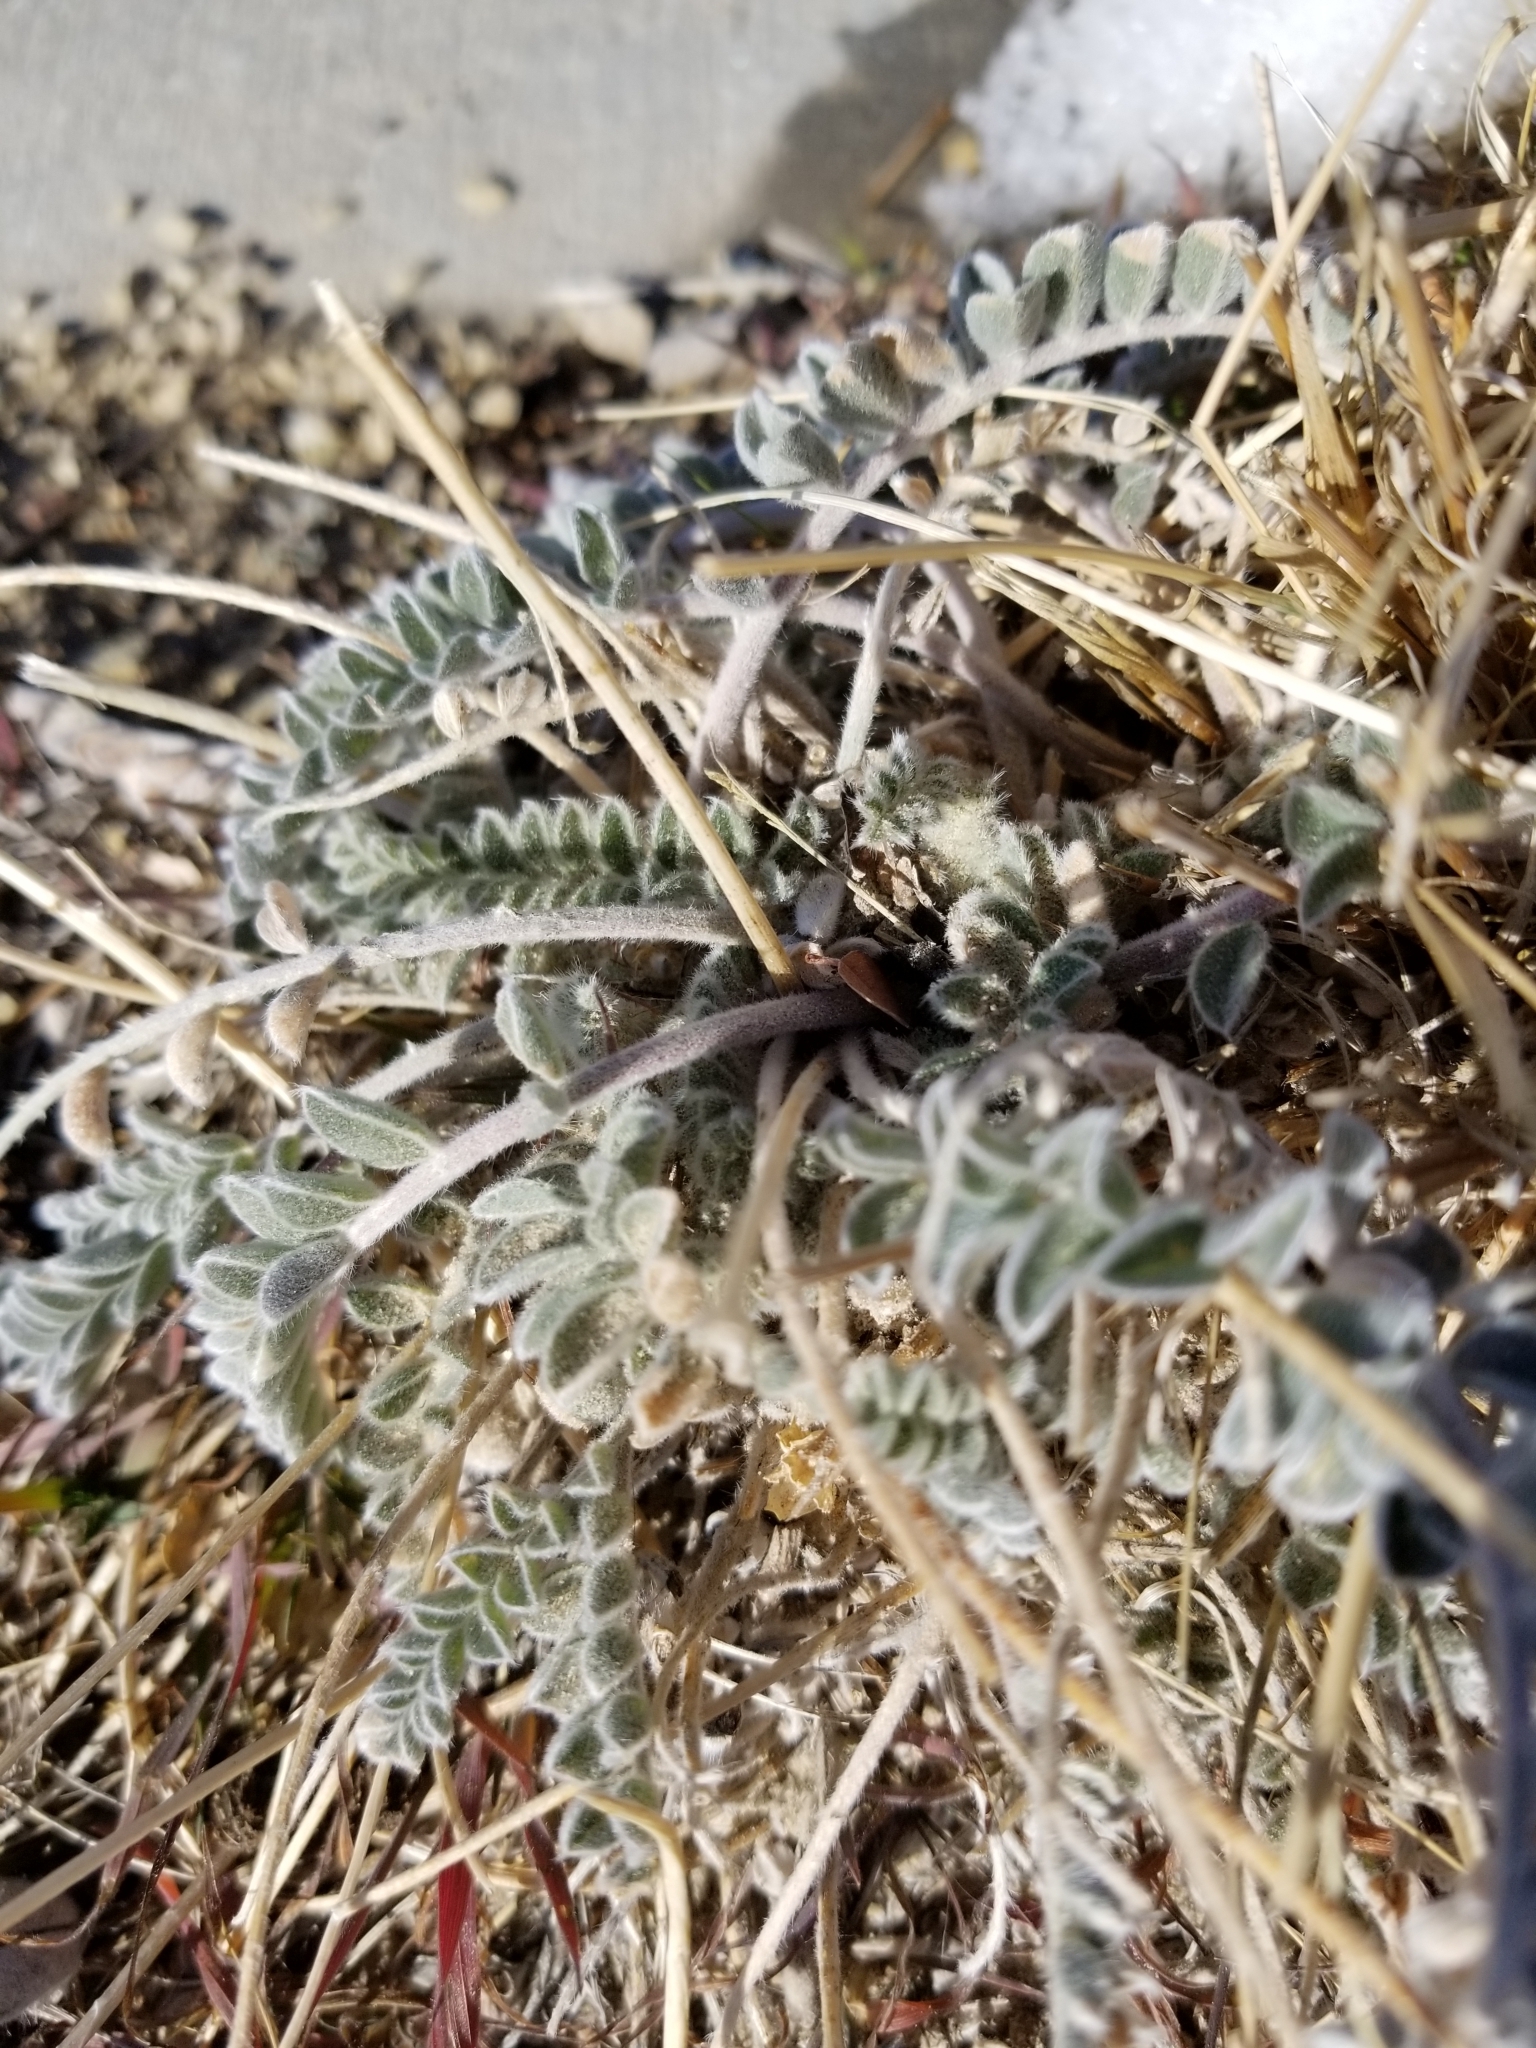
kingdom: Plantae
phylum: Tracheophyta
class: Magnoliopsida
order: Fabales
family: Fabaceae
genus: Astragalus
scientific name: Astragalus mollissimus
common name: Woolly locoweed
